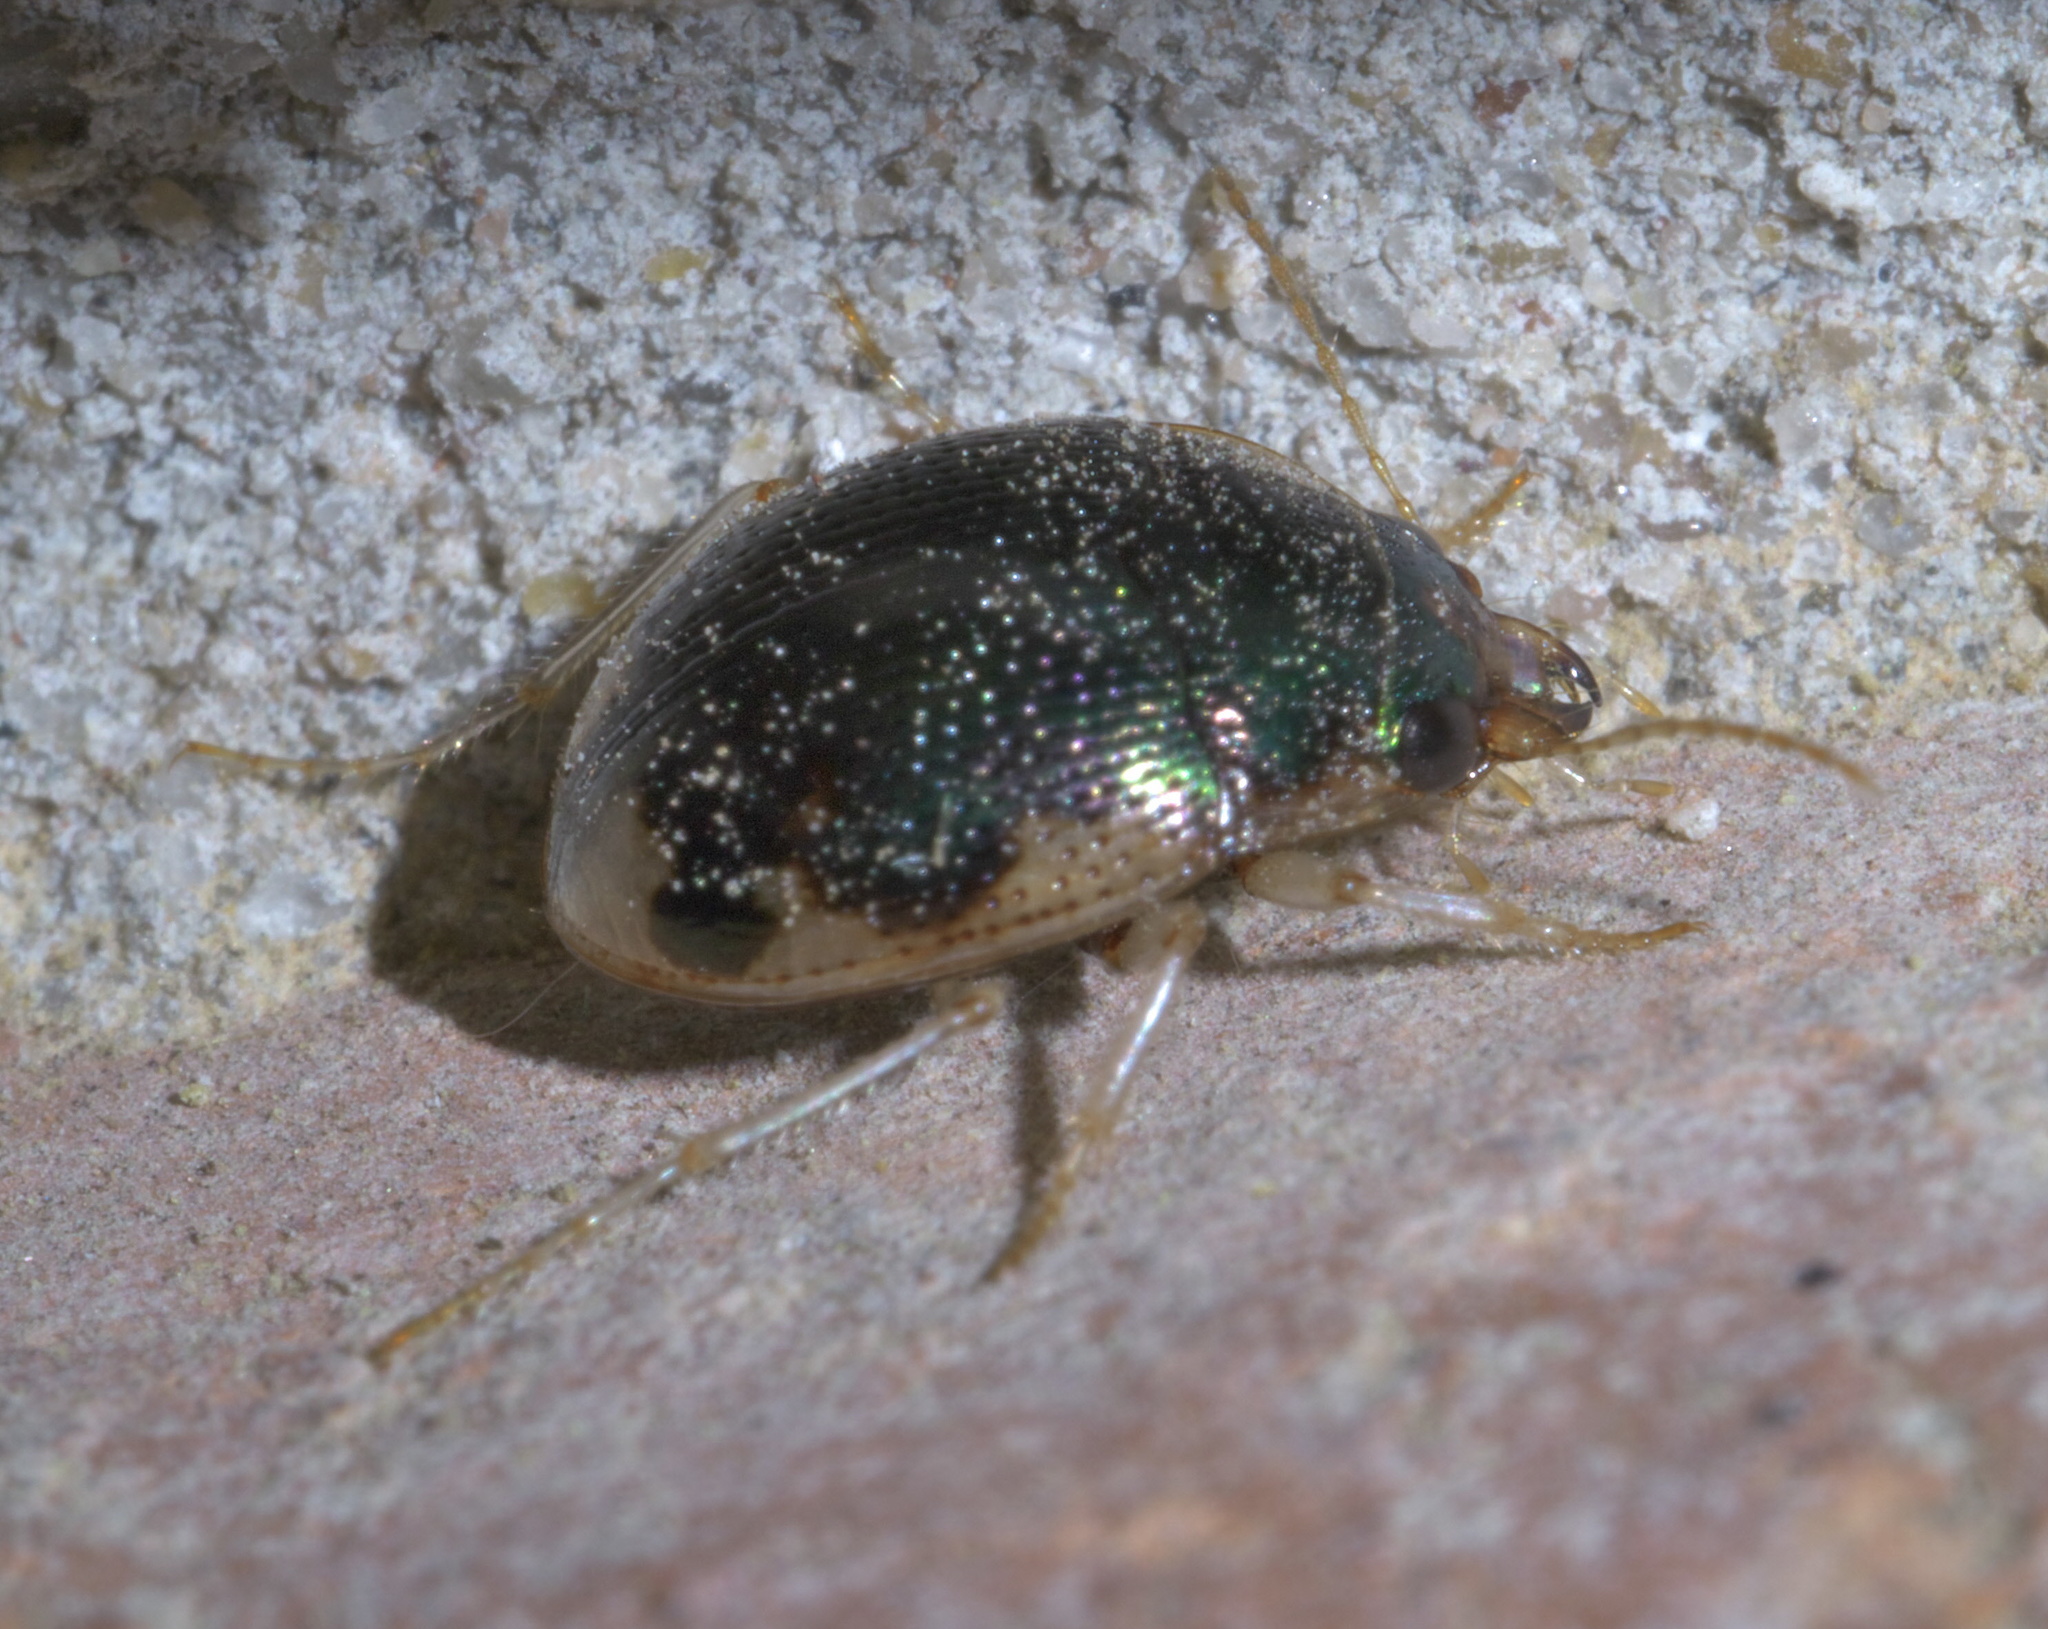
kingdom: Animalia
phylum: Arthropoda
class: Insecta
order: Coleoptera
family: Carabidae
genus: Omophron
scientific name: Omophron nitidum
